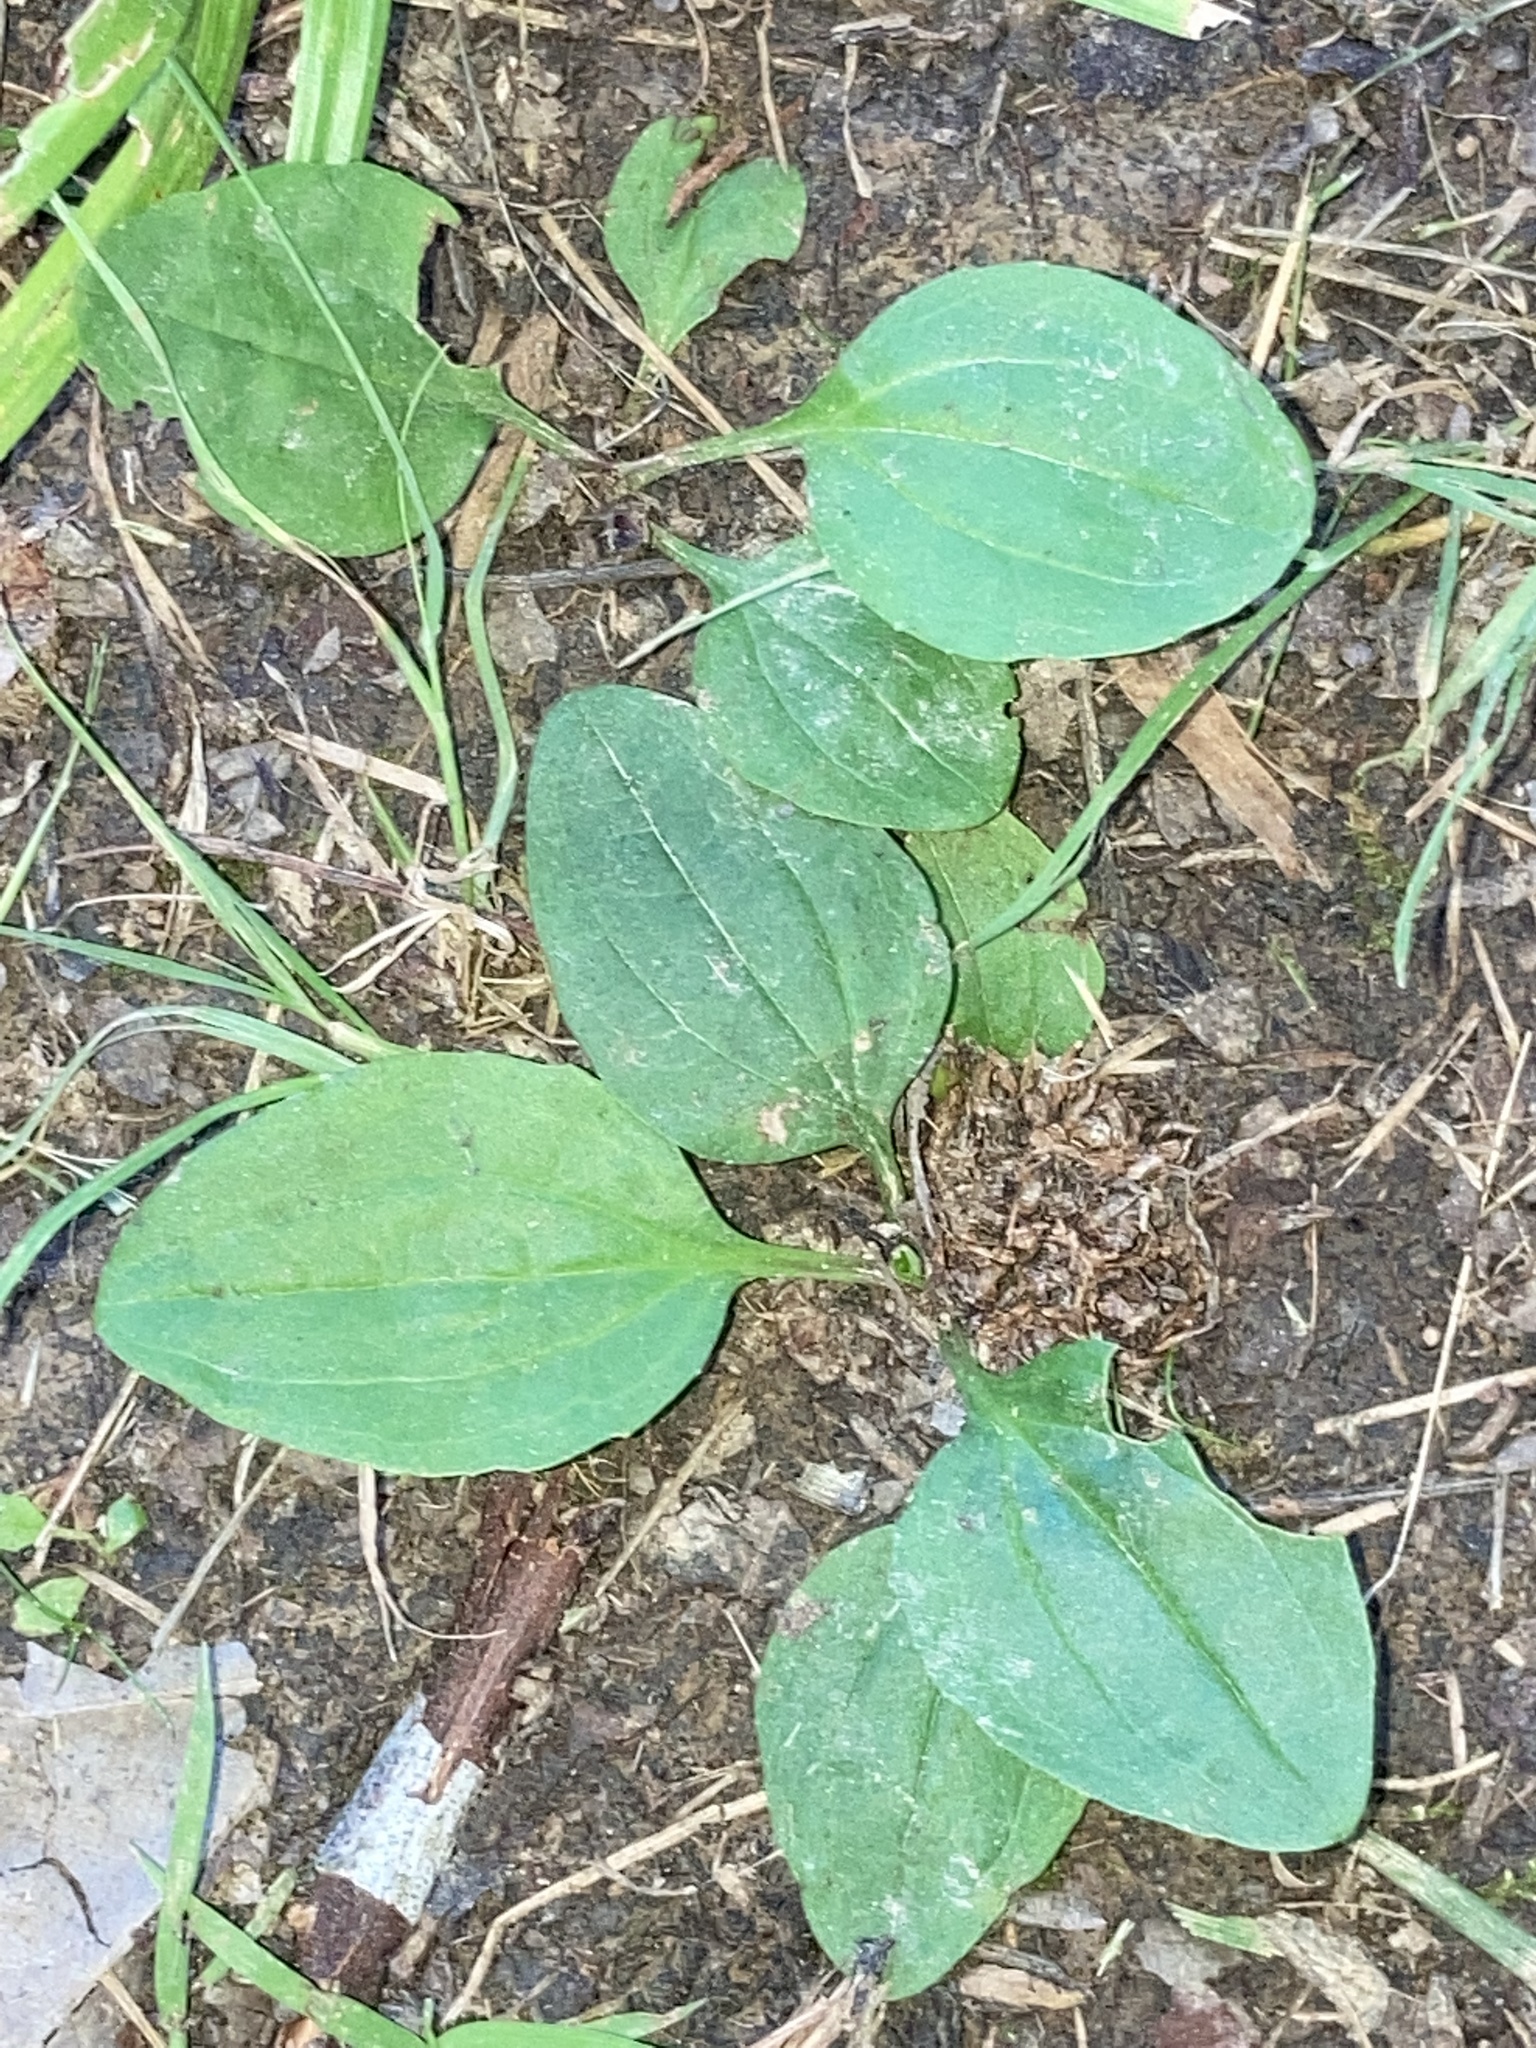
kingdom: Plantae
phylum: Tracheophyta
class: Magnoliopsida
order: Lamiales
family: Plantaginaceae
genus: Plantago
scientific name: Plantago rugelii
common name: American plantain
